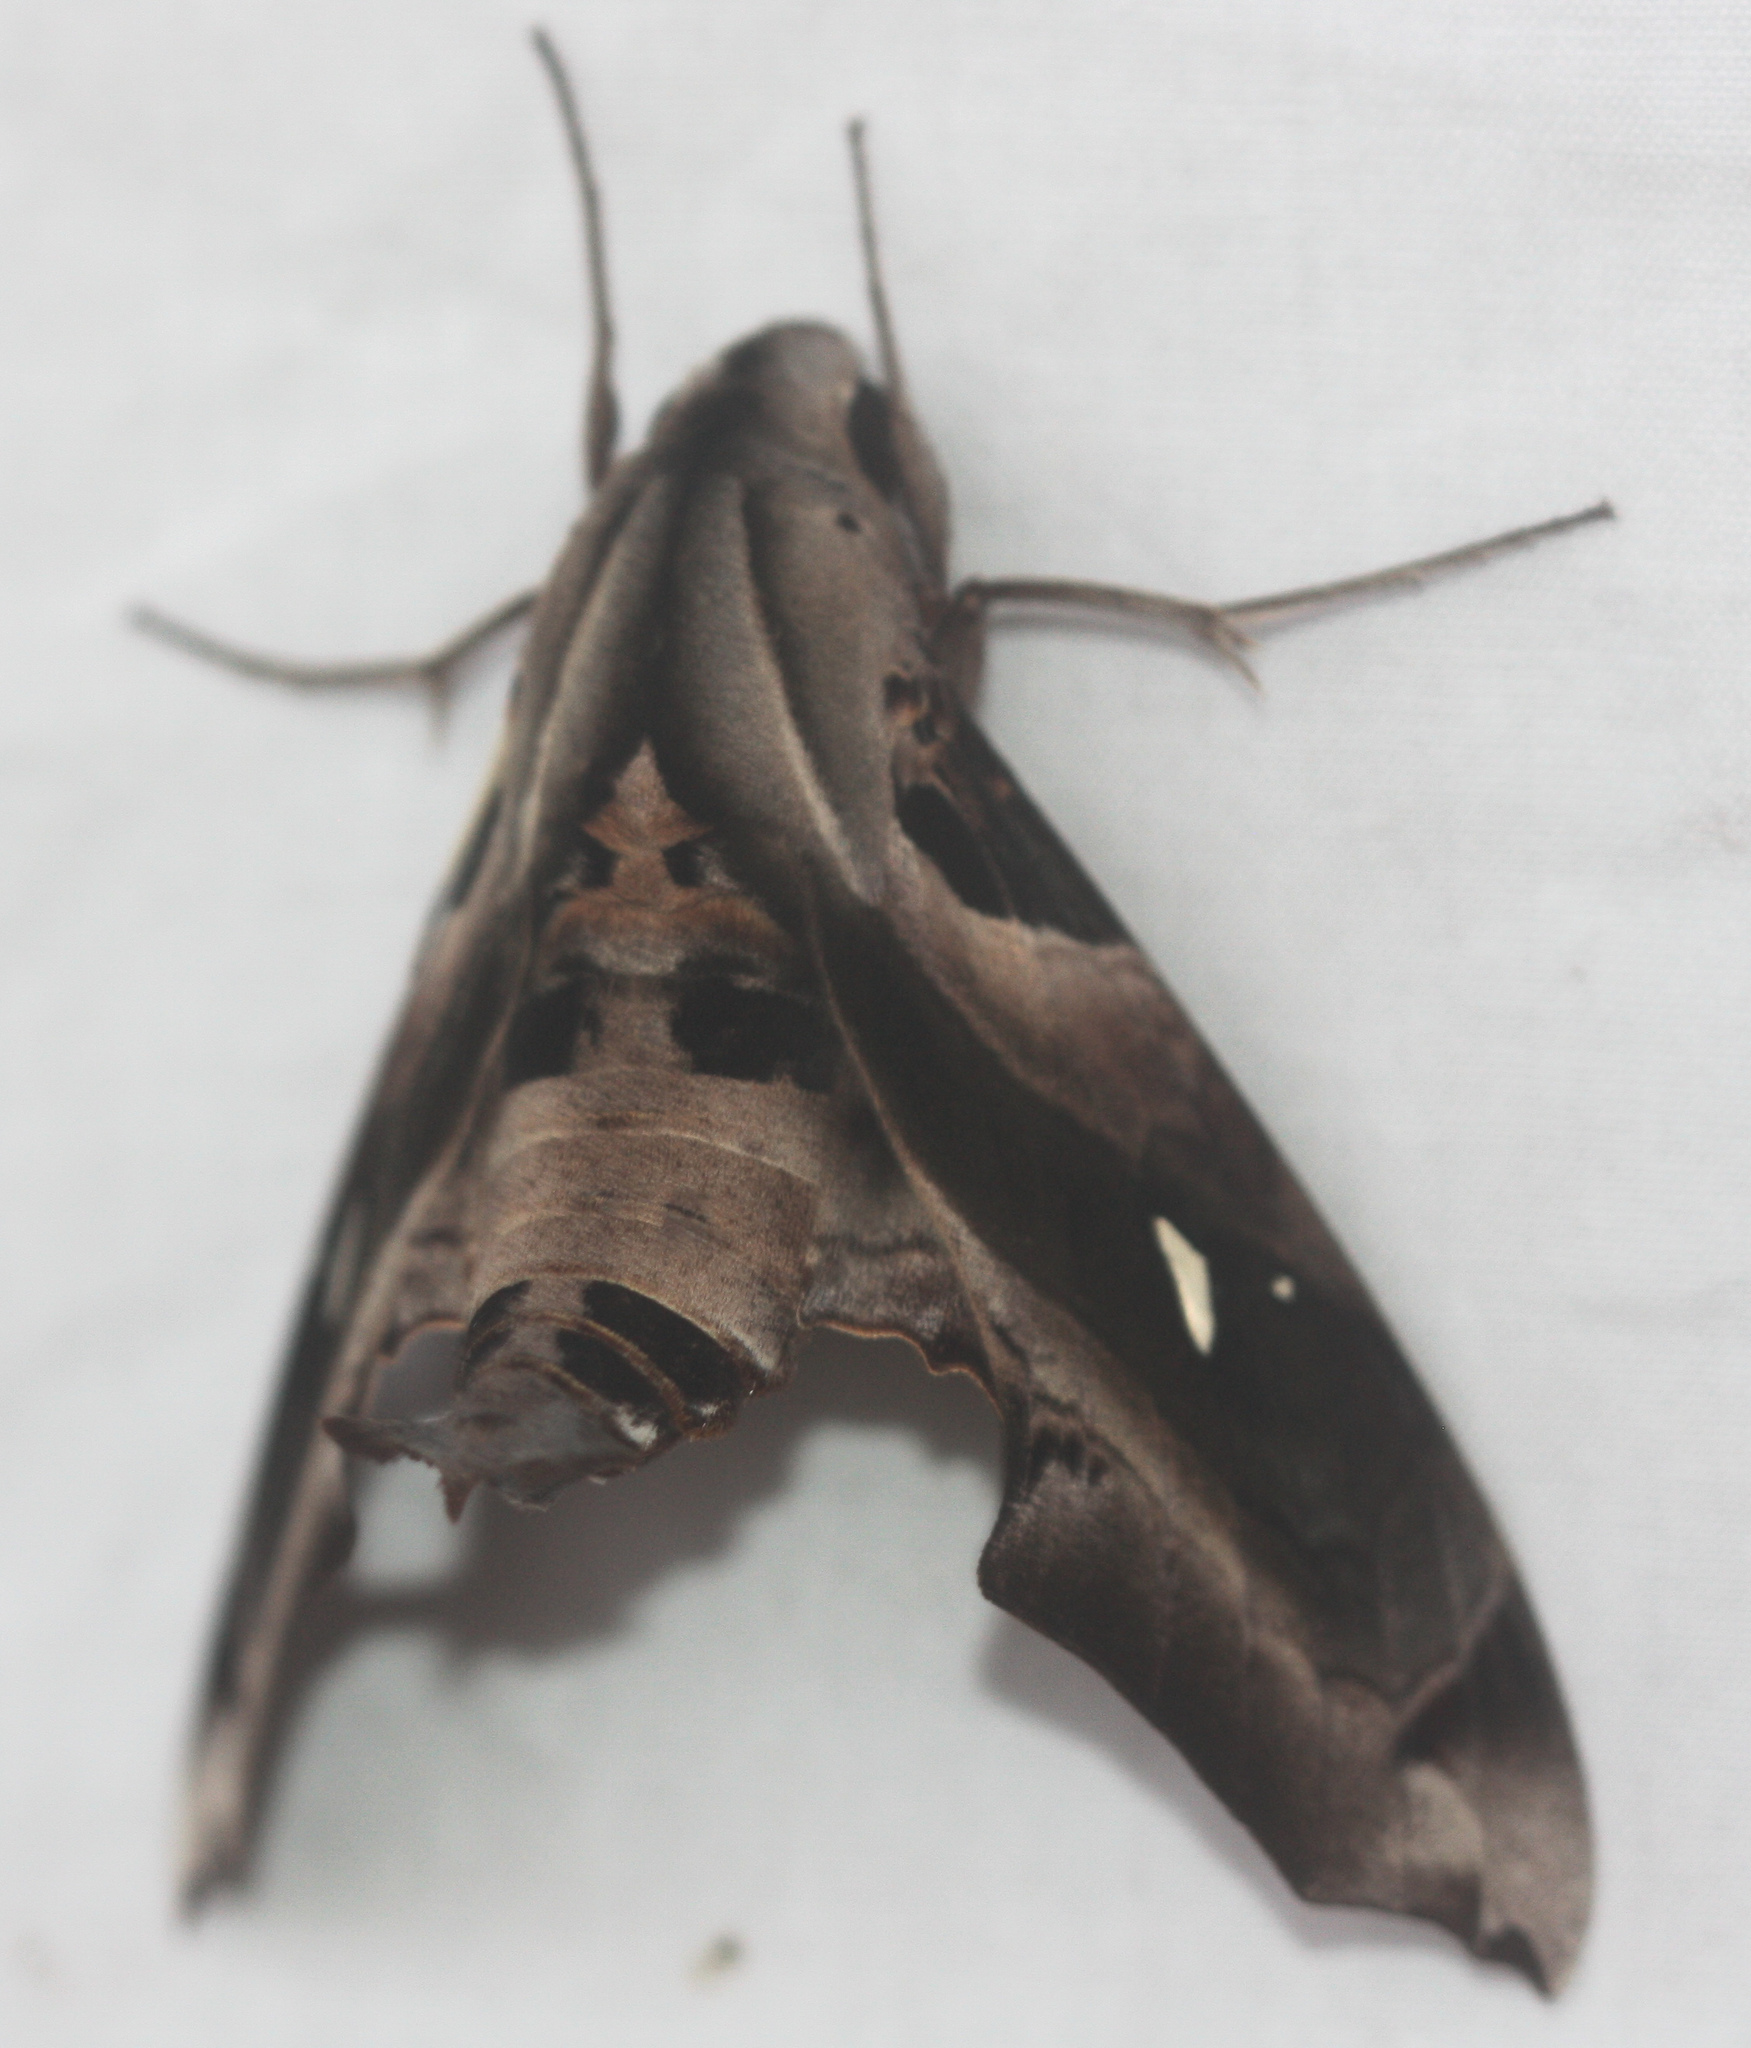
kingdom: Animalia
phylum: Arthropoda
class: Insecta
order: Lepidoptera
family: Sphingidae
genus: Madoryx
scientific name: Madoryx plutonius
